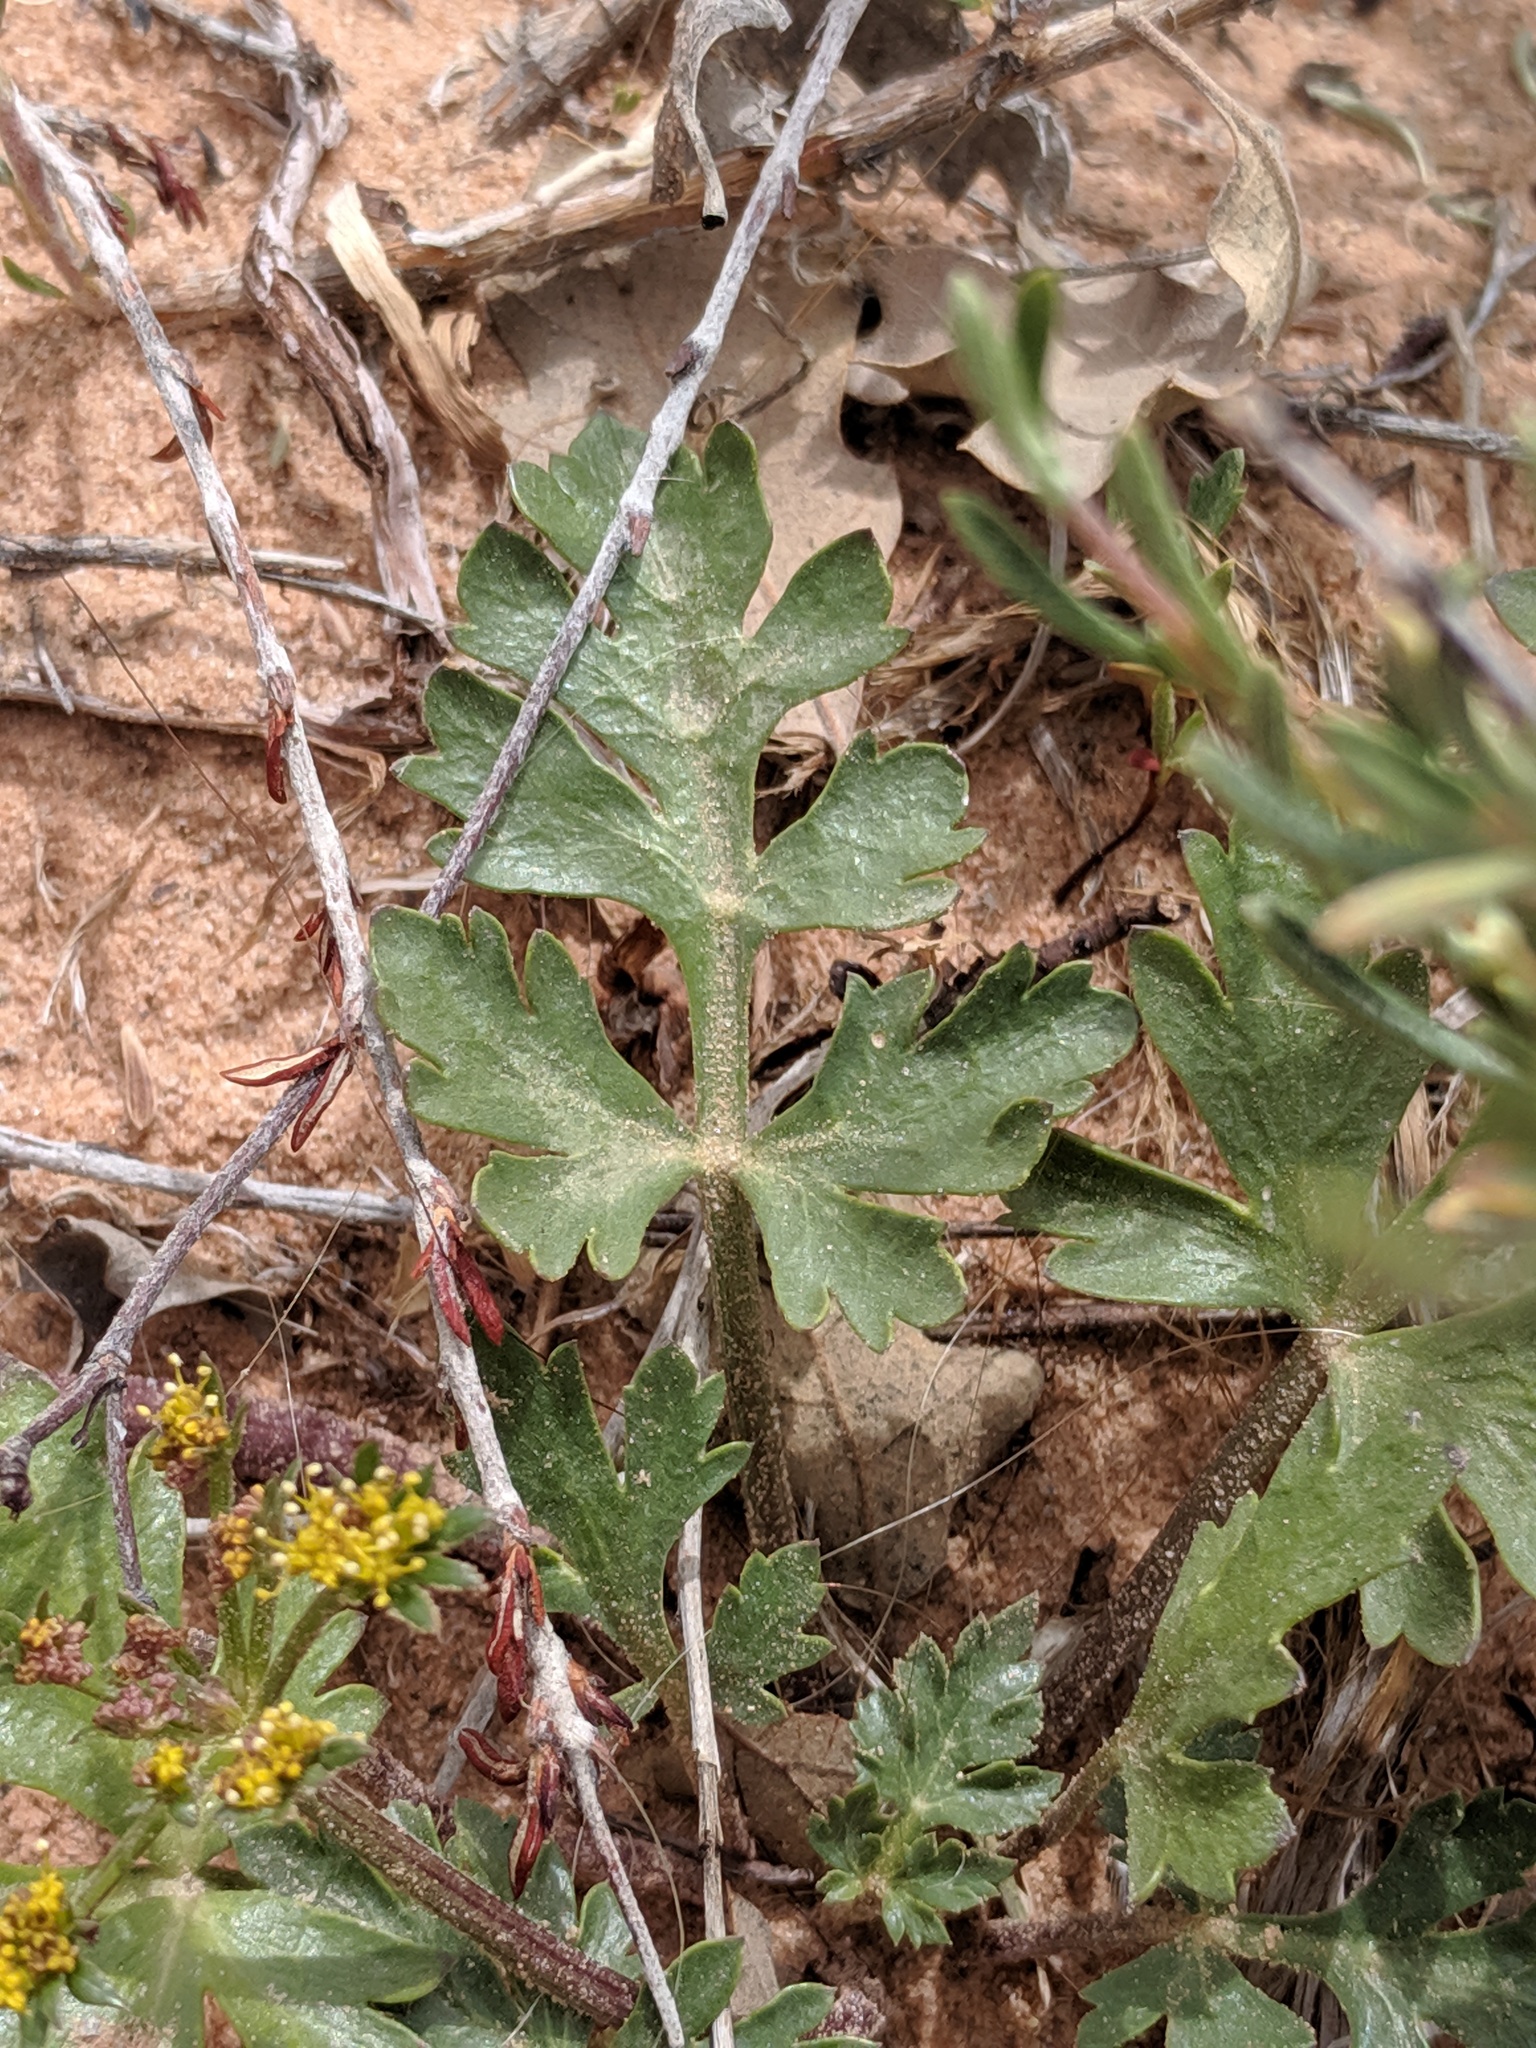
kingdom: Plantae
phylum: Tracheophyta
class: Magnoliopsida
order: Apiales
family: Apiaceae
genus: Cymopterus
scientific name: Cymopterus newberryi
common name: Sticky spring-parsley
